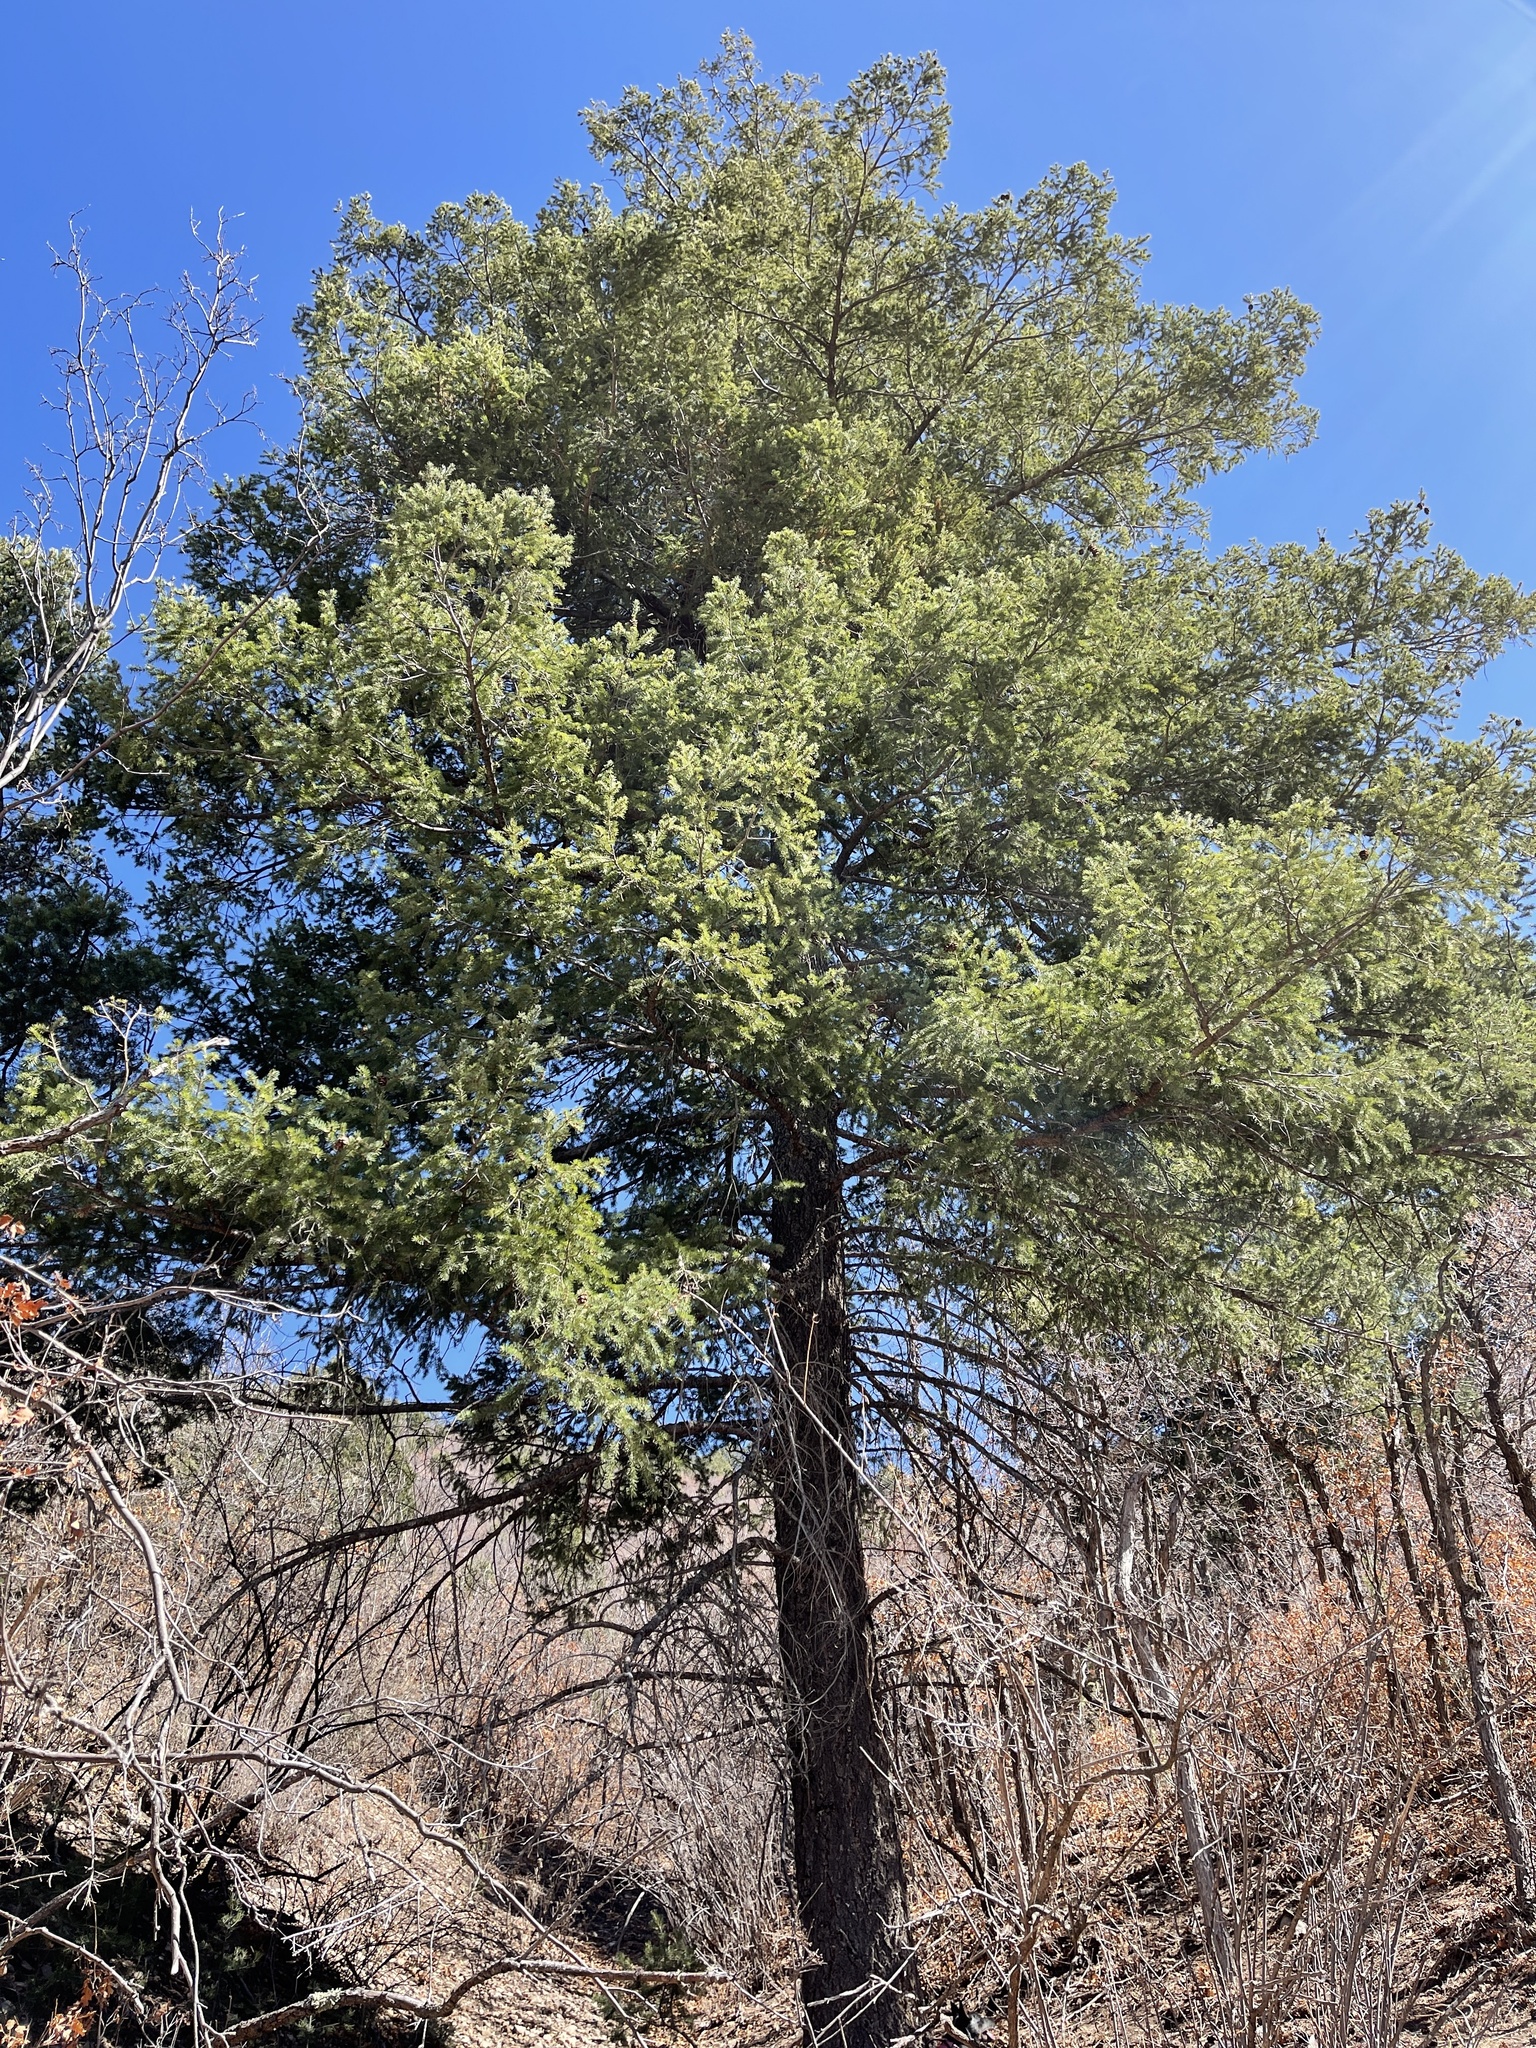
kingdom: Plantae
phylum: Tracheophyta
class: Pinopsida
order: Pinales
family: Pinaceae
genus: Pseudotsuga
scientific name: Pseudotsuga menziesii
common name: Douglas fir
